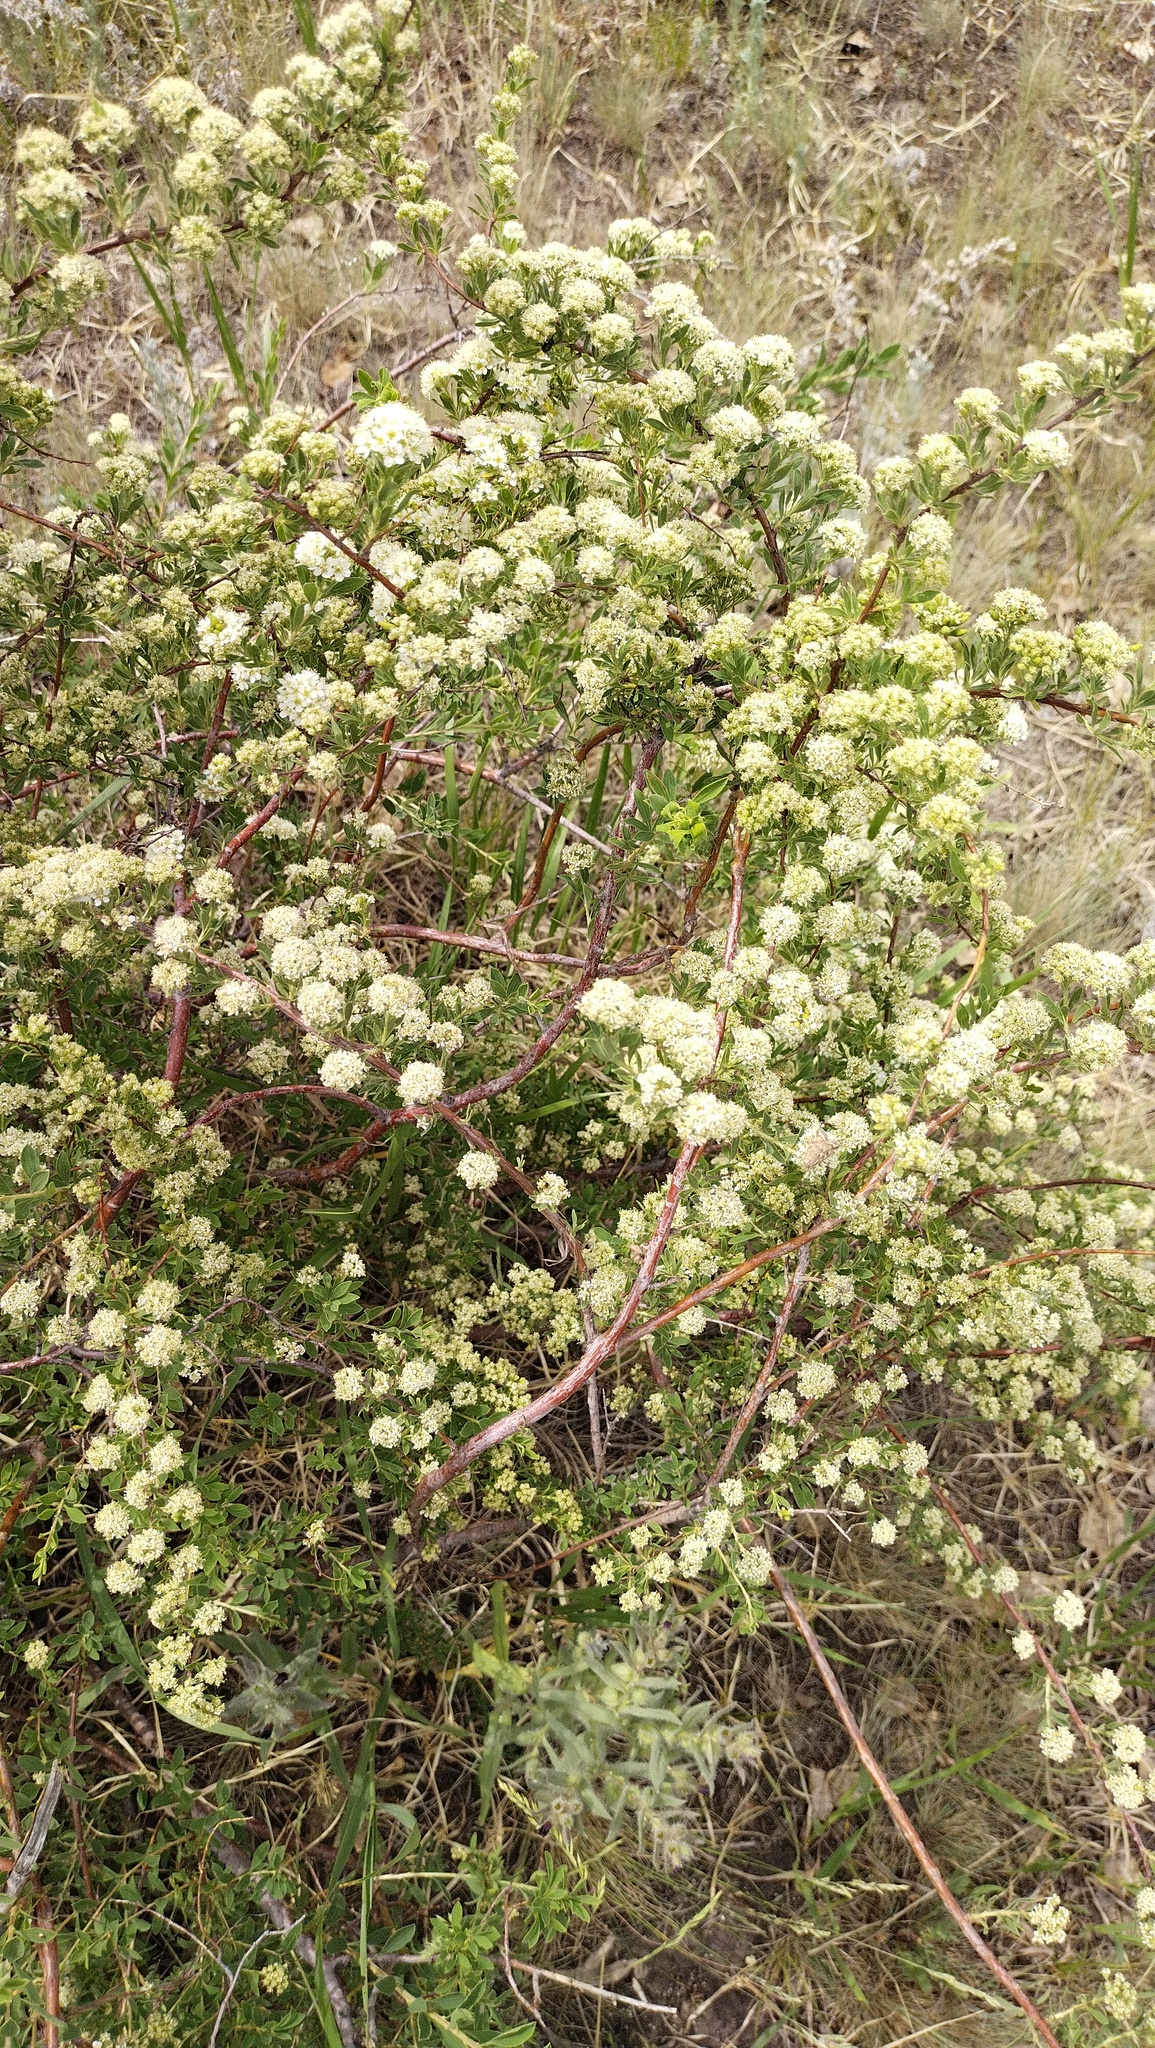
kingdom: Plantae
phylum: Tracheophyta
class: Magnoliopsida
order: Rosales
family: Rosaceae
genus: Spiraea
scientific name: Spiraea crenata
